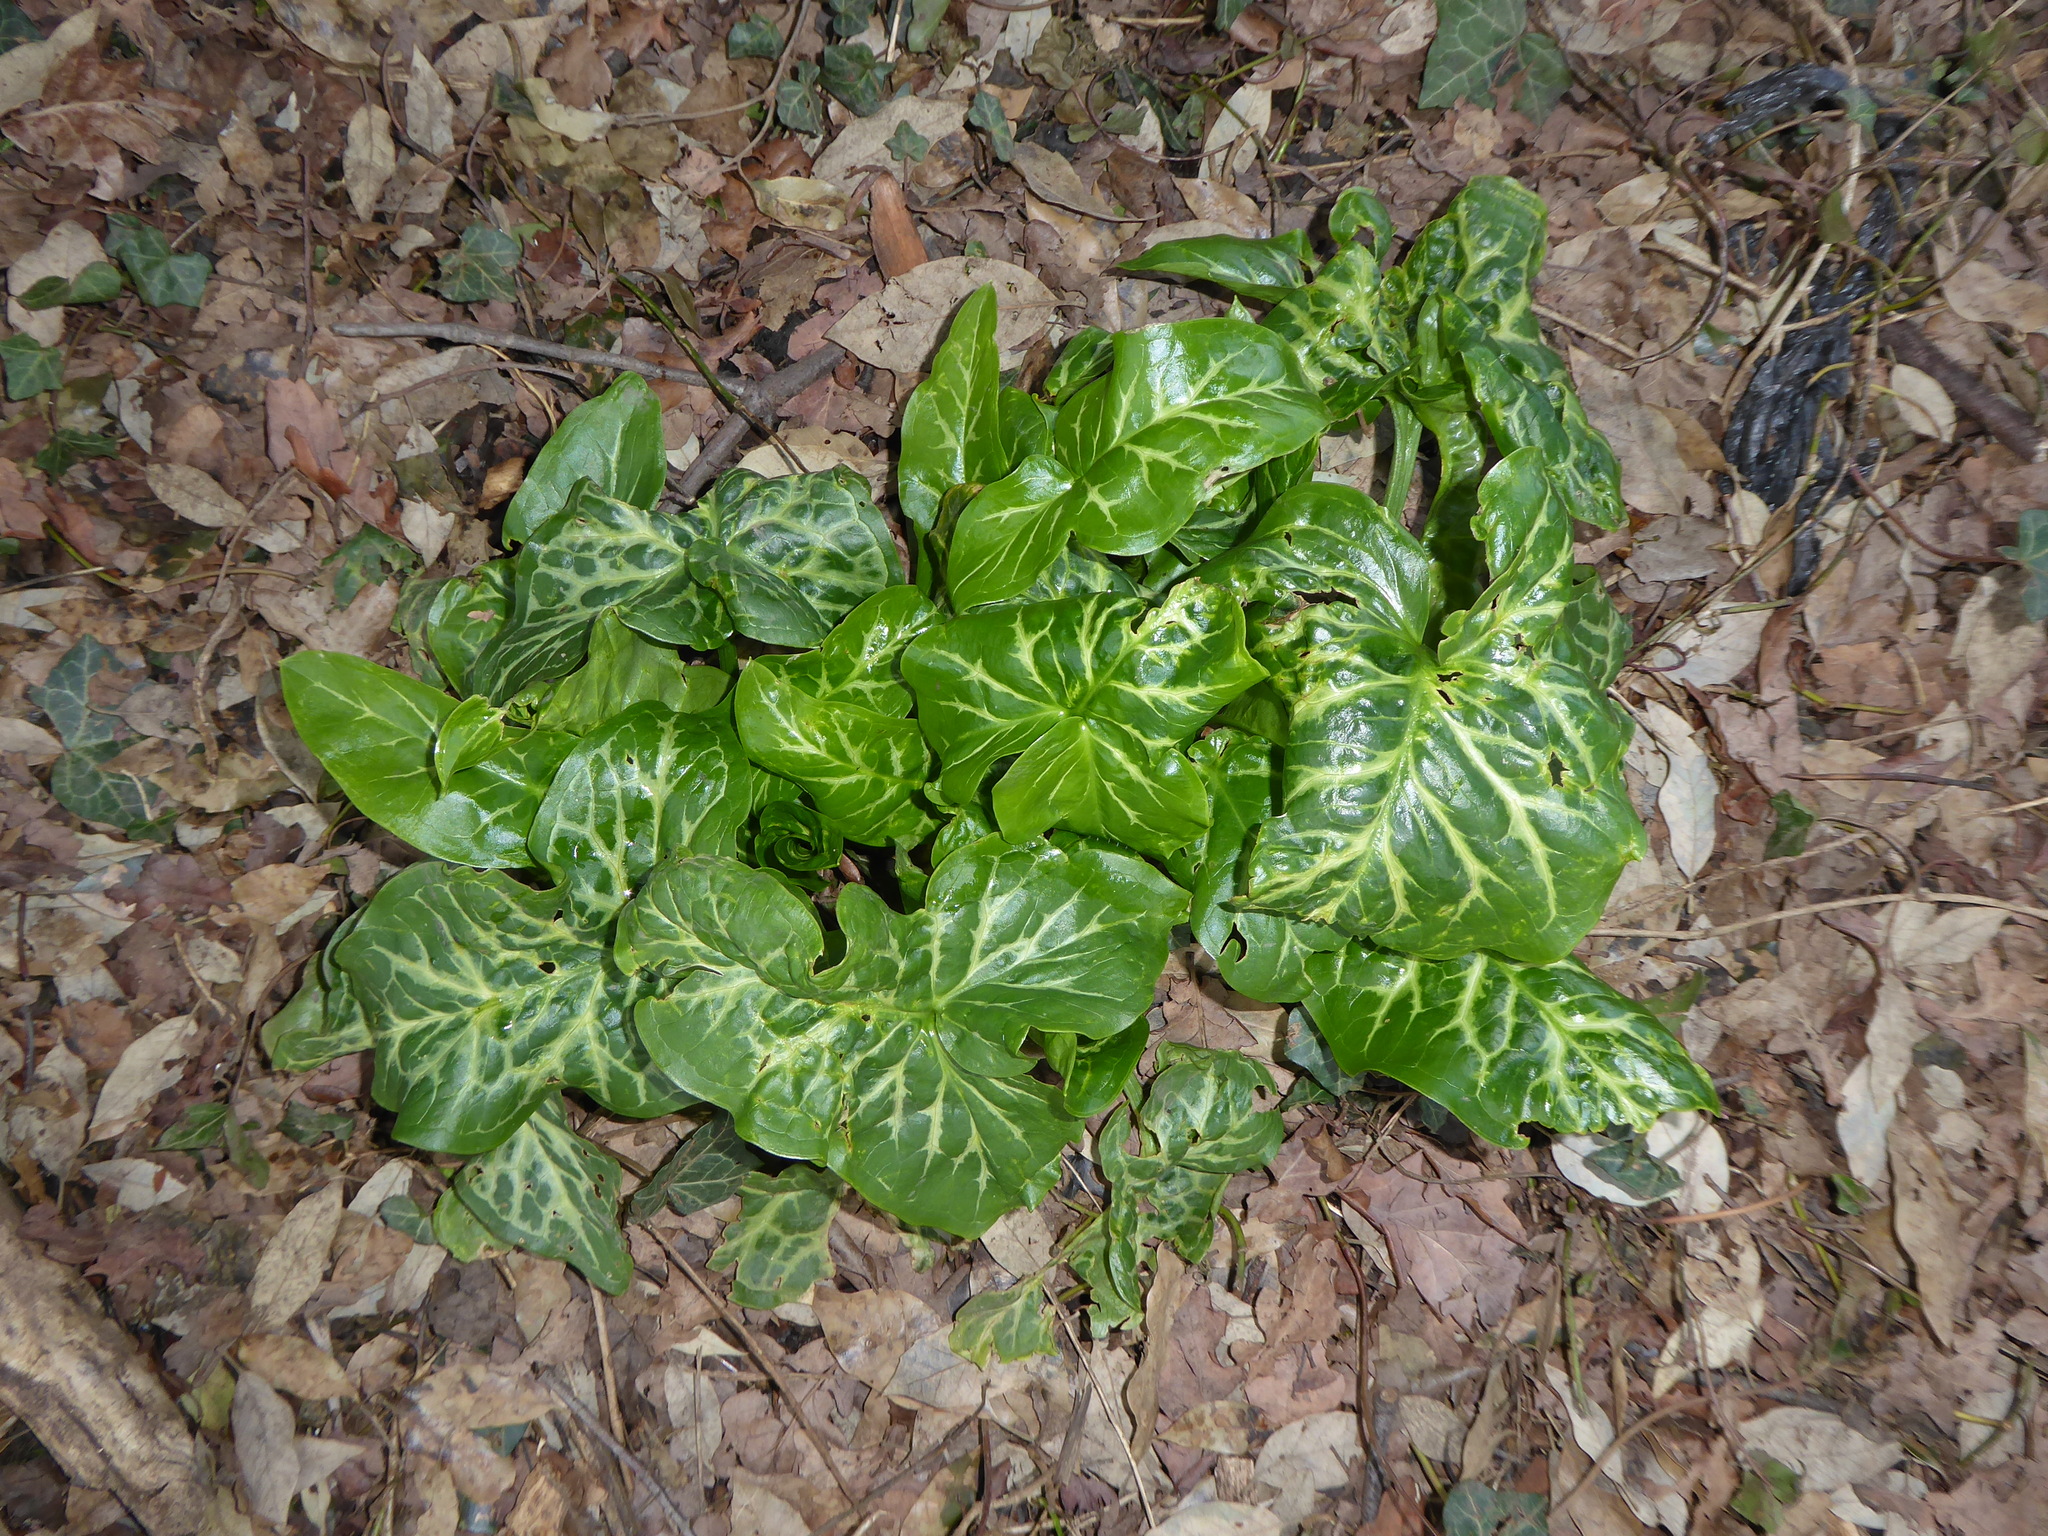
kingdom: Plantae
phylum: Tracheophyta
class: Liliopsida
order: Alismatales
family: Araceae
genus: Arum
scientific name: Arum italicum
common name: Italian lords-and-ladies
